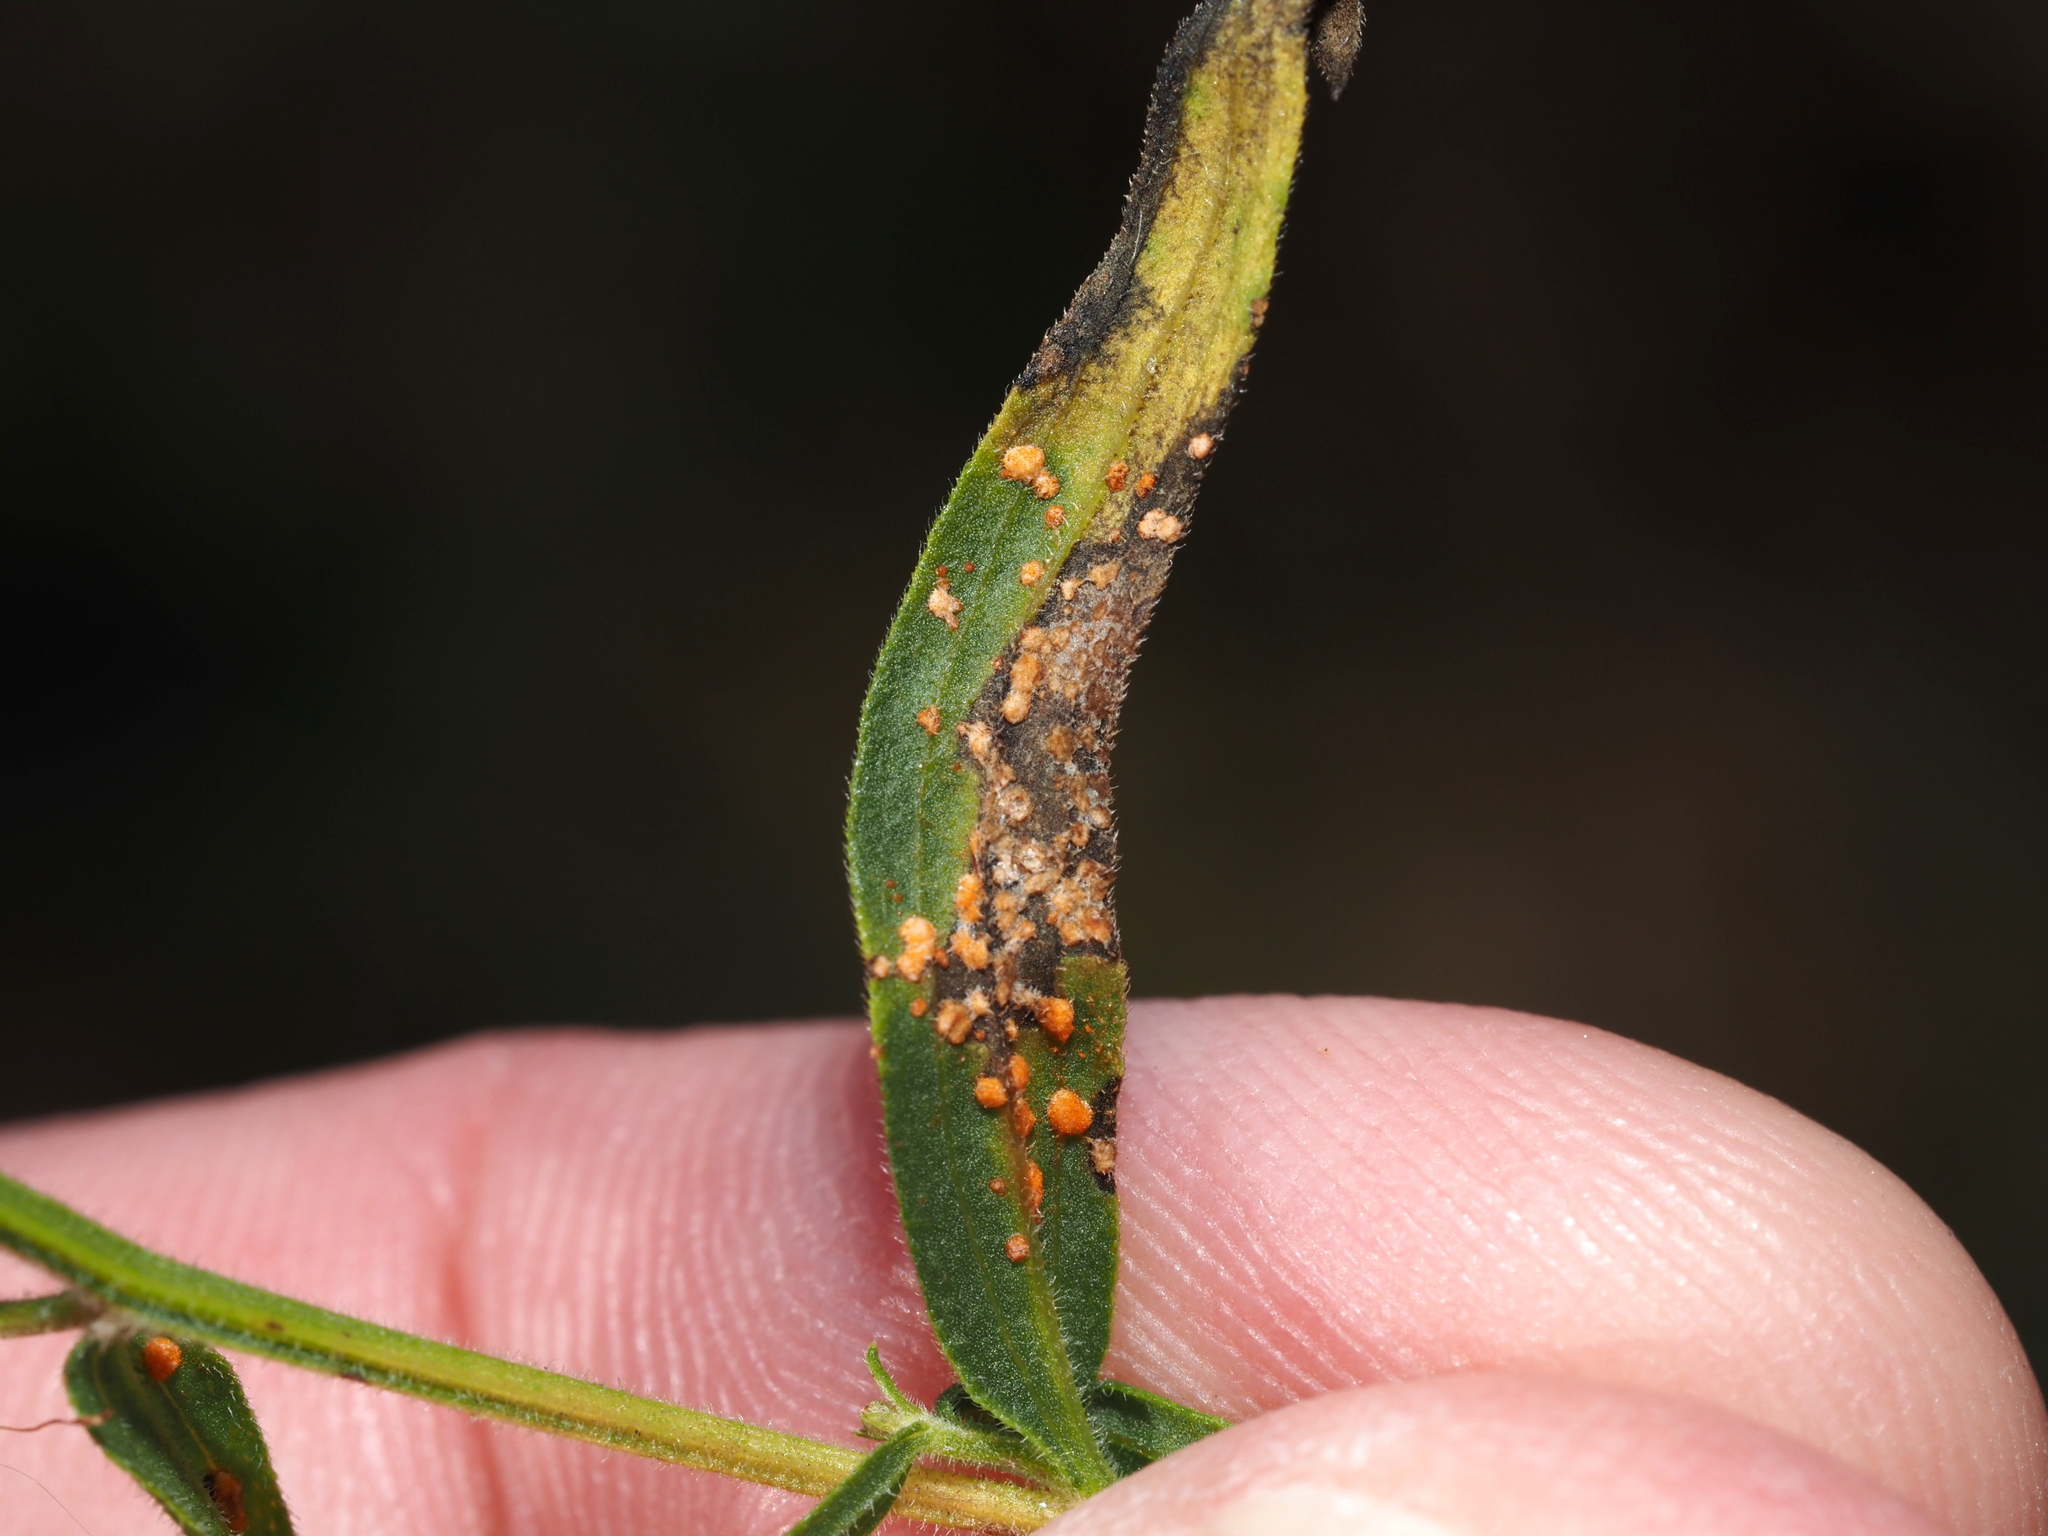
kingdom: Fungi
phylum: Basidiomycota
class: Pucciniomycetes
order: Pucciniales
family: Coleosporiaceae
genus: Coleosporium
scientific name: Coleosporium asterum
